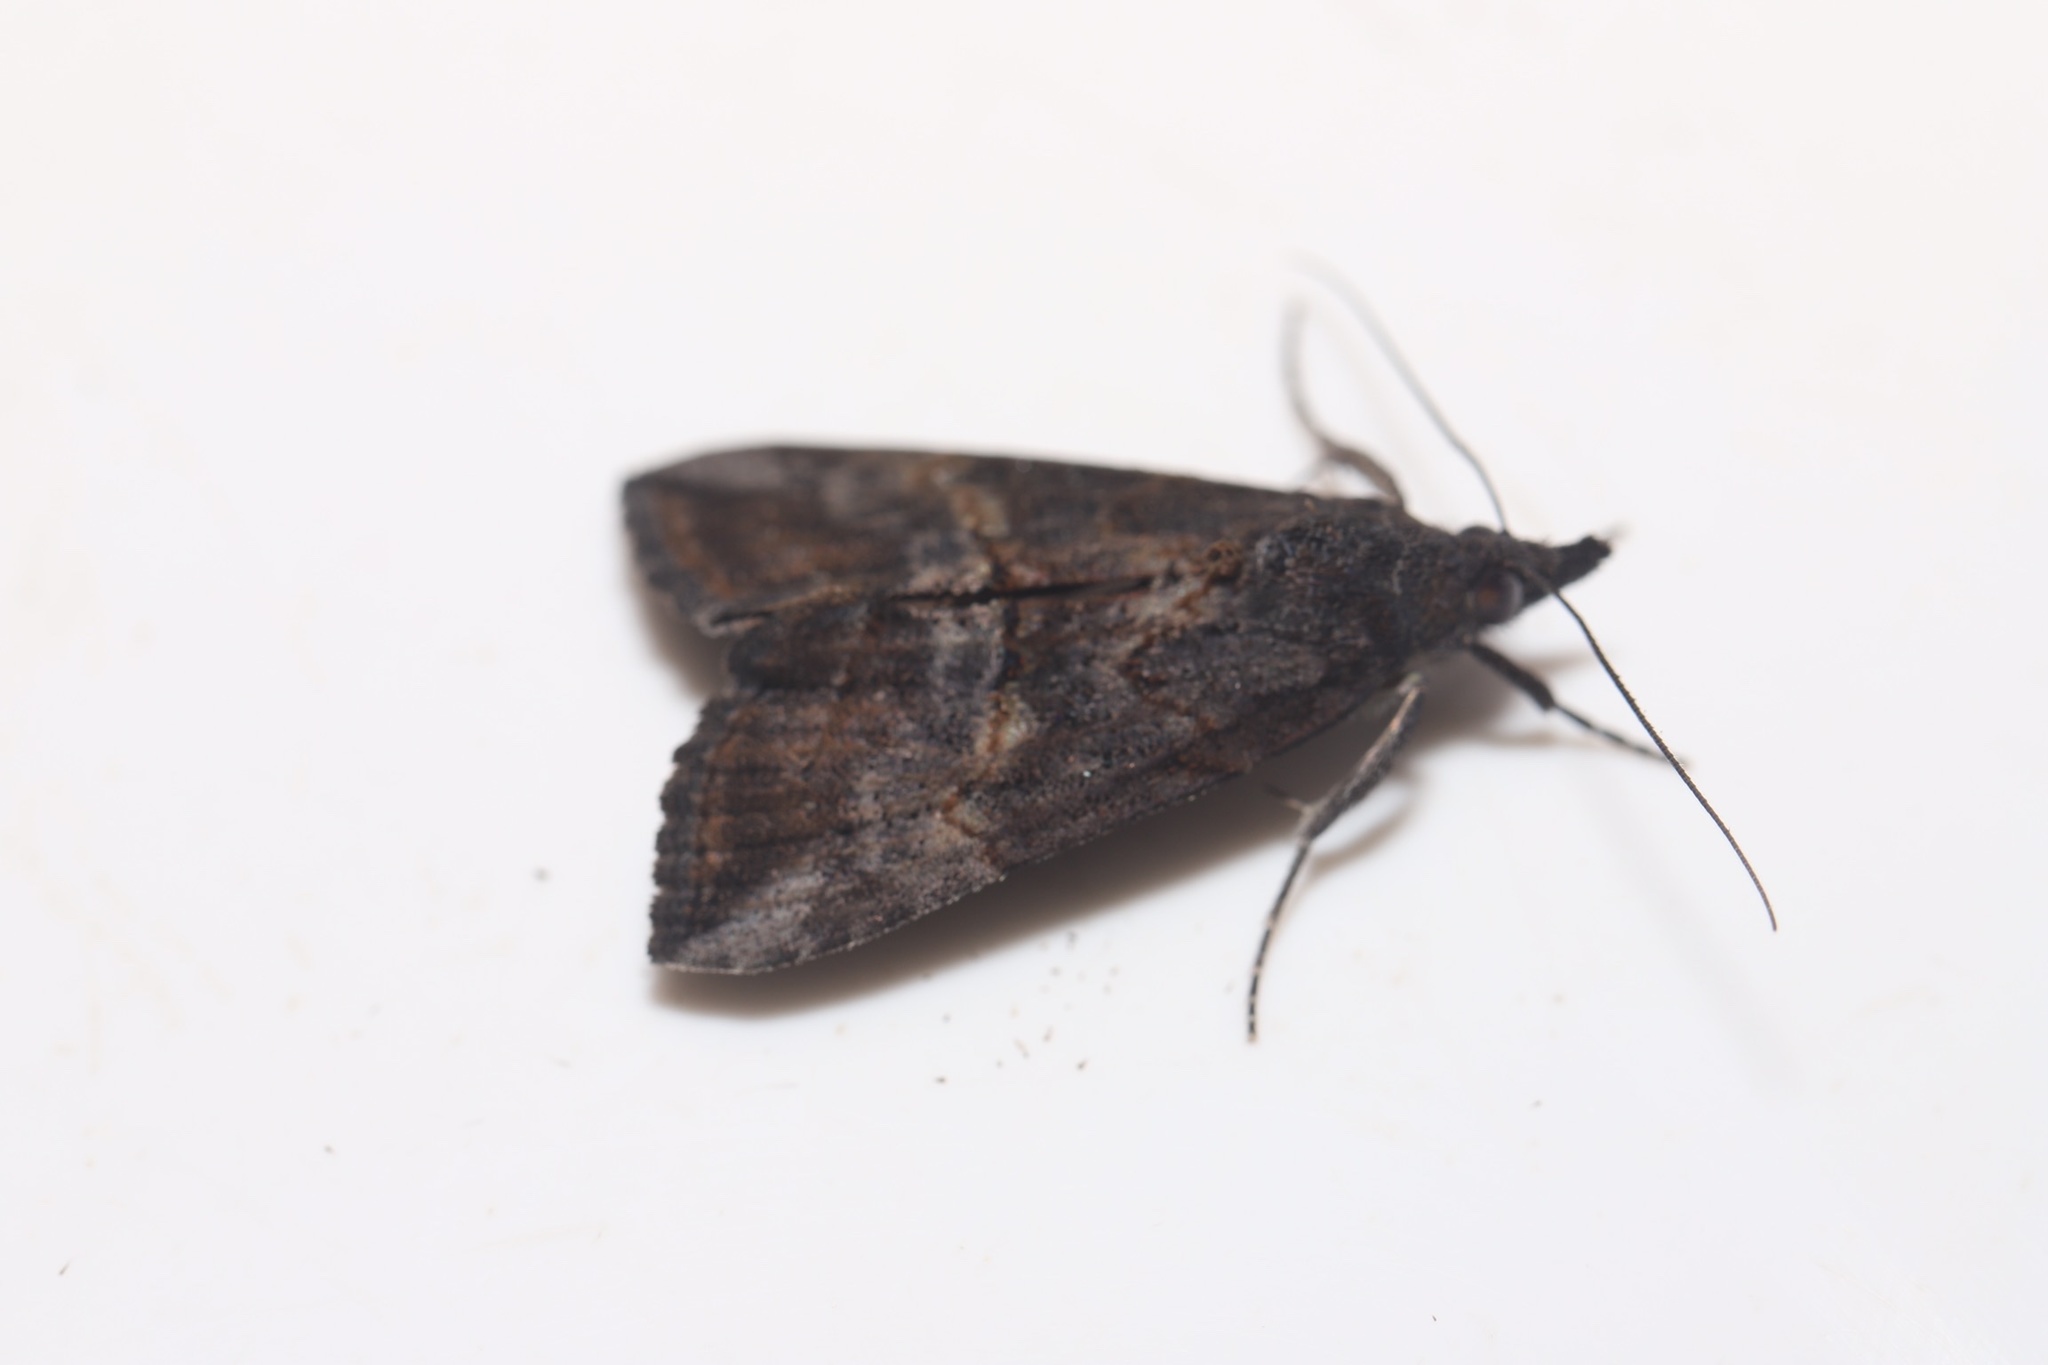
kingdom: Animalia
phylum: Arthropoda
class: Insecta
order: Lepidoptera
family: Erebidae
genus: Hypena
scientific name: Hypena scabra
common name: Green cloverworm
